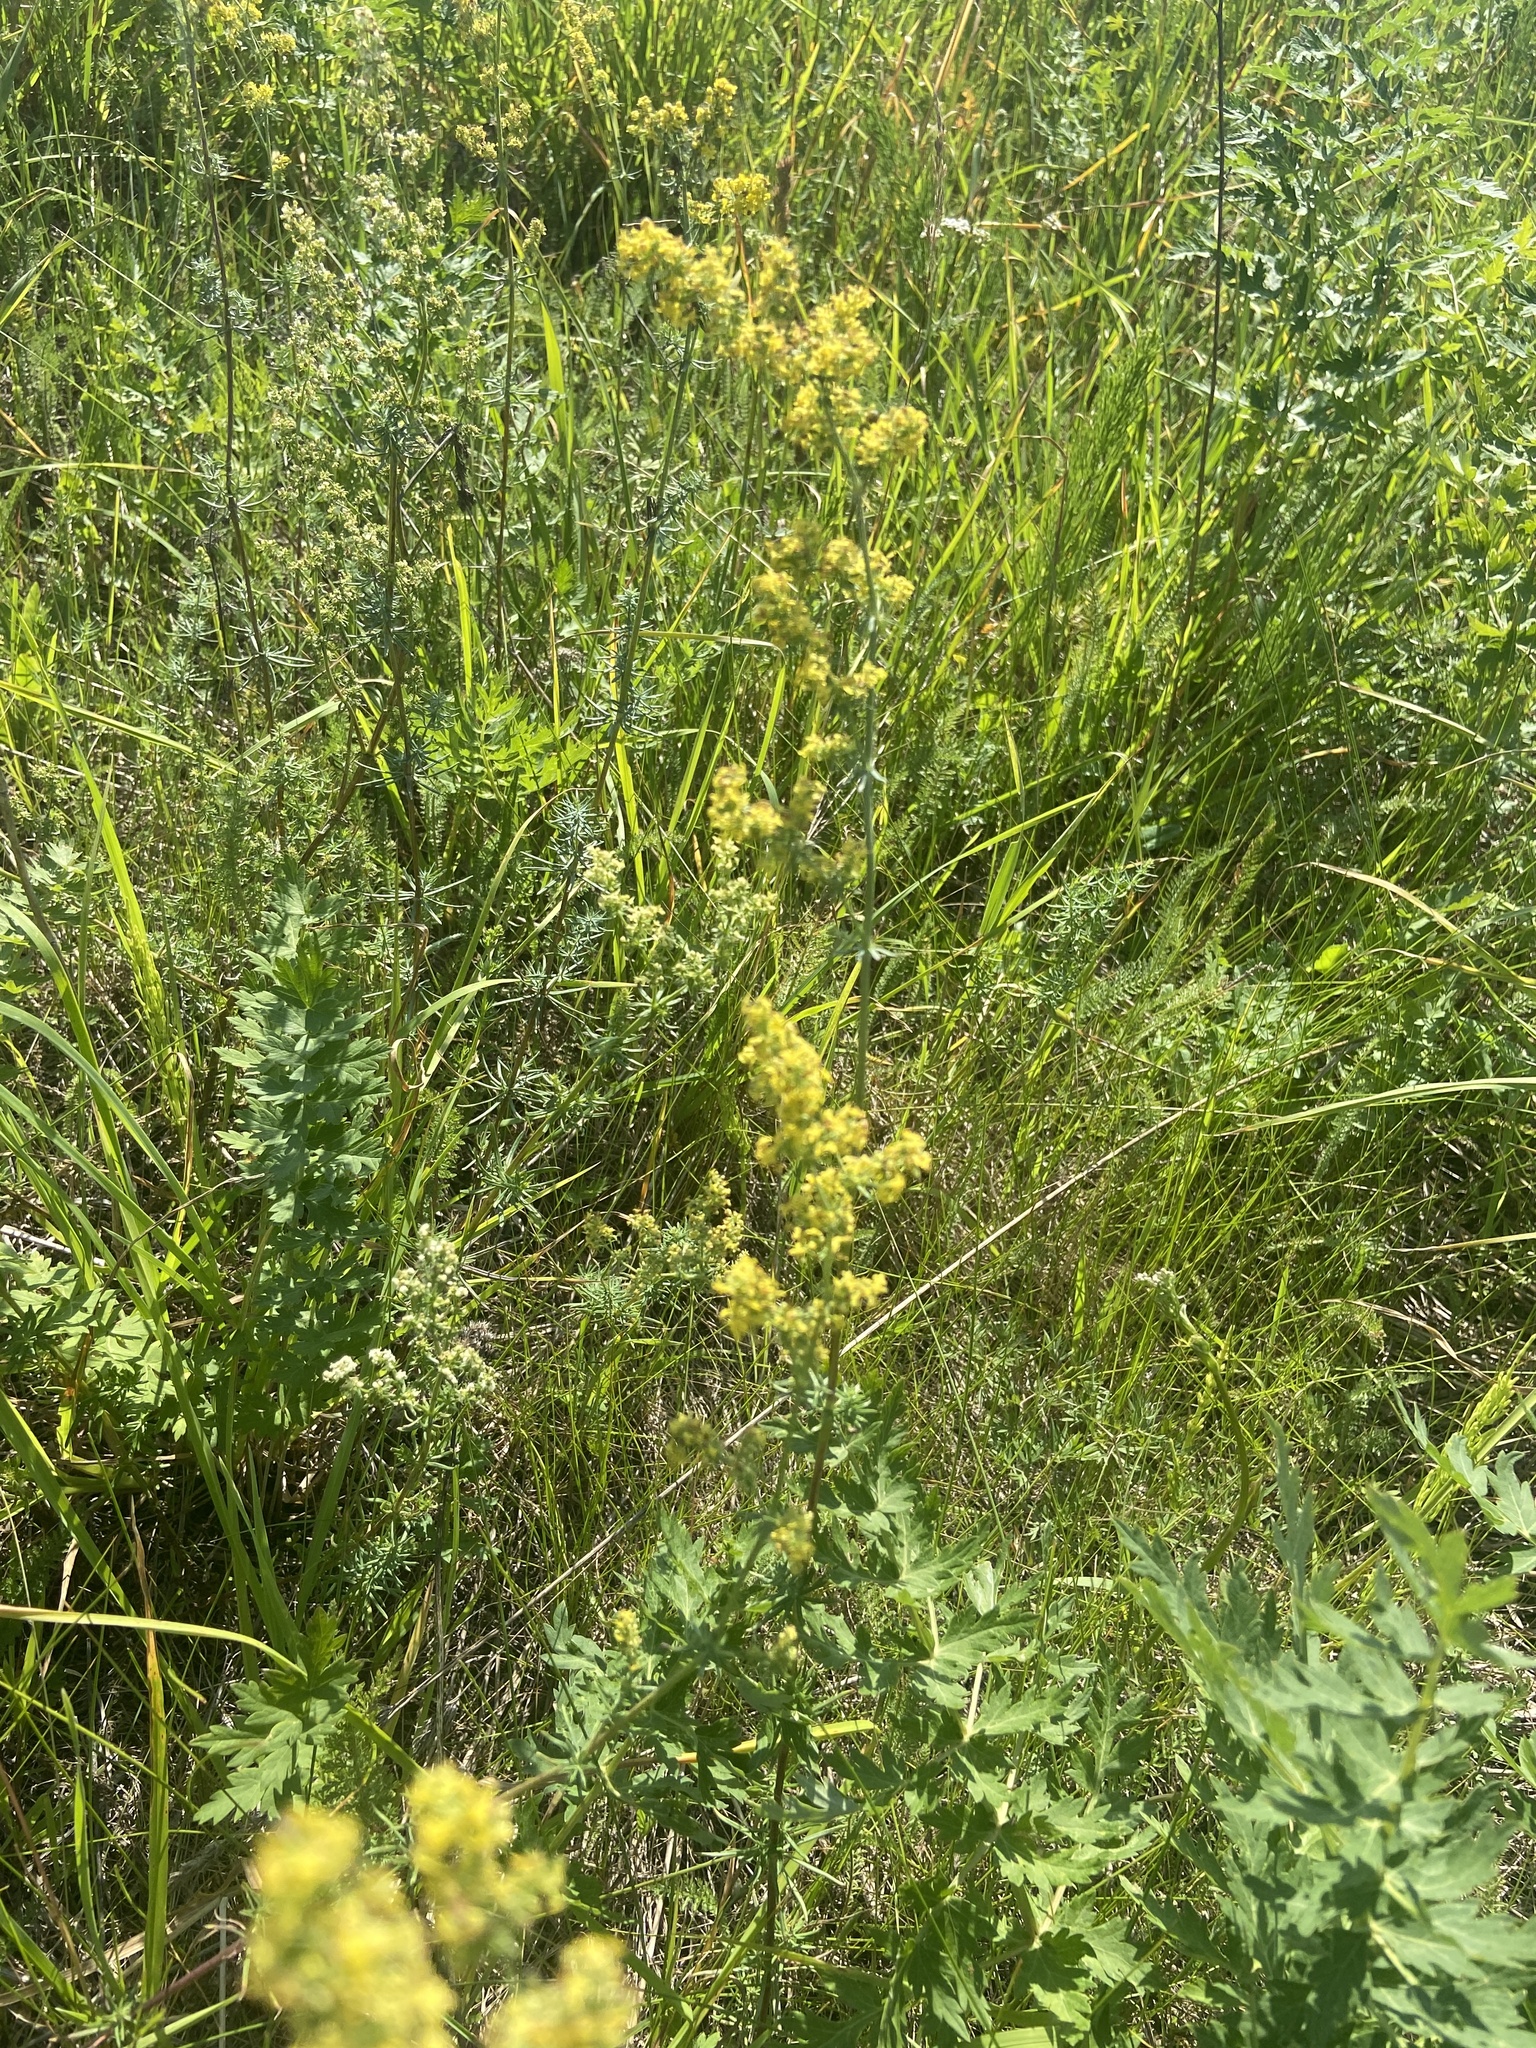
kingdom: Plantae
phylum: Tracheophyta
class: Magnoliopsida
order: Fabales
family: Fabaceae
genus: Melilotus
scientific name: Melilotus officinalis
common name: Sweetclover
